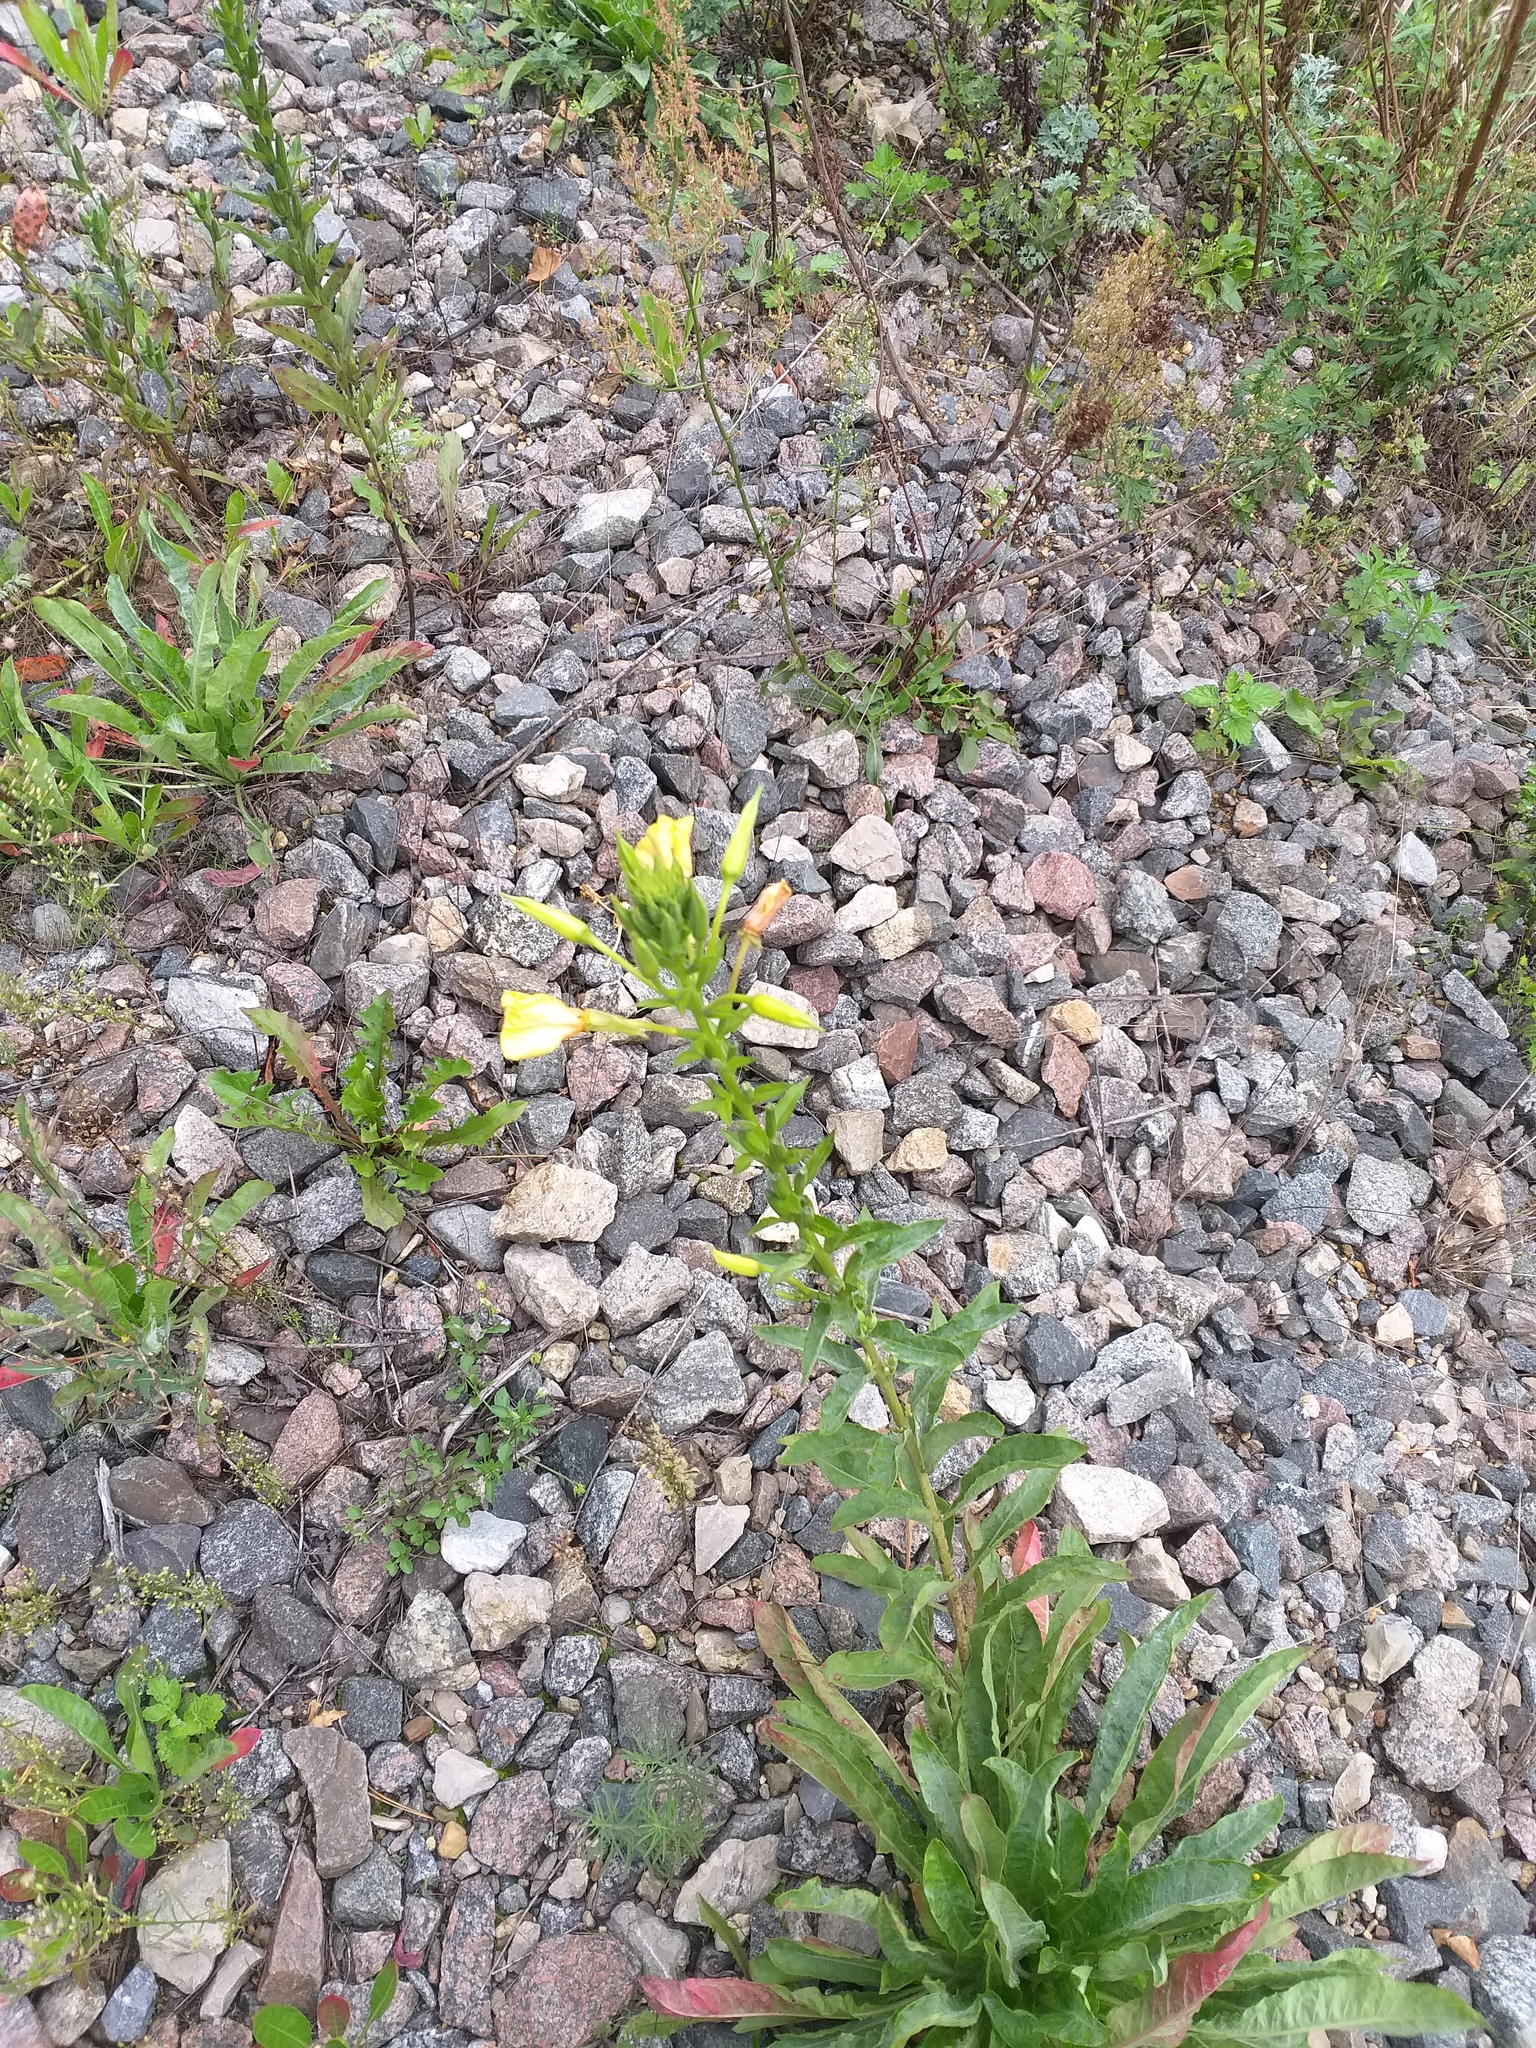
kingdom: Plantae
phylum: Tracheophyta
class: Magnoliopsida
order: Myrtales
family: Onagraceae
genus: Oenothera
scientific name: Oenothera biennis
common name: Common evening-primrose
